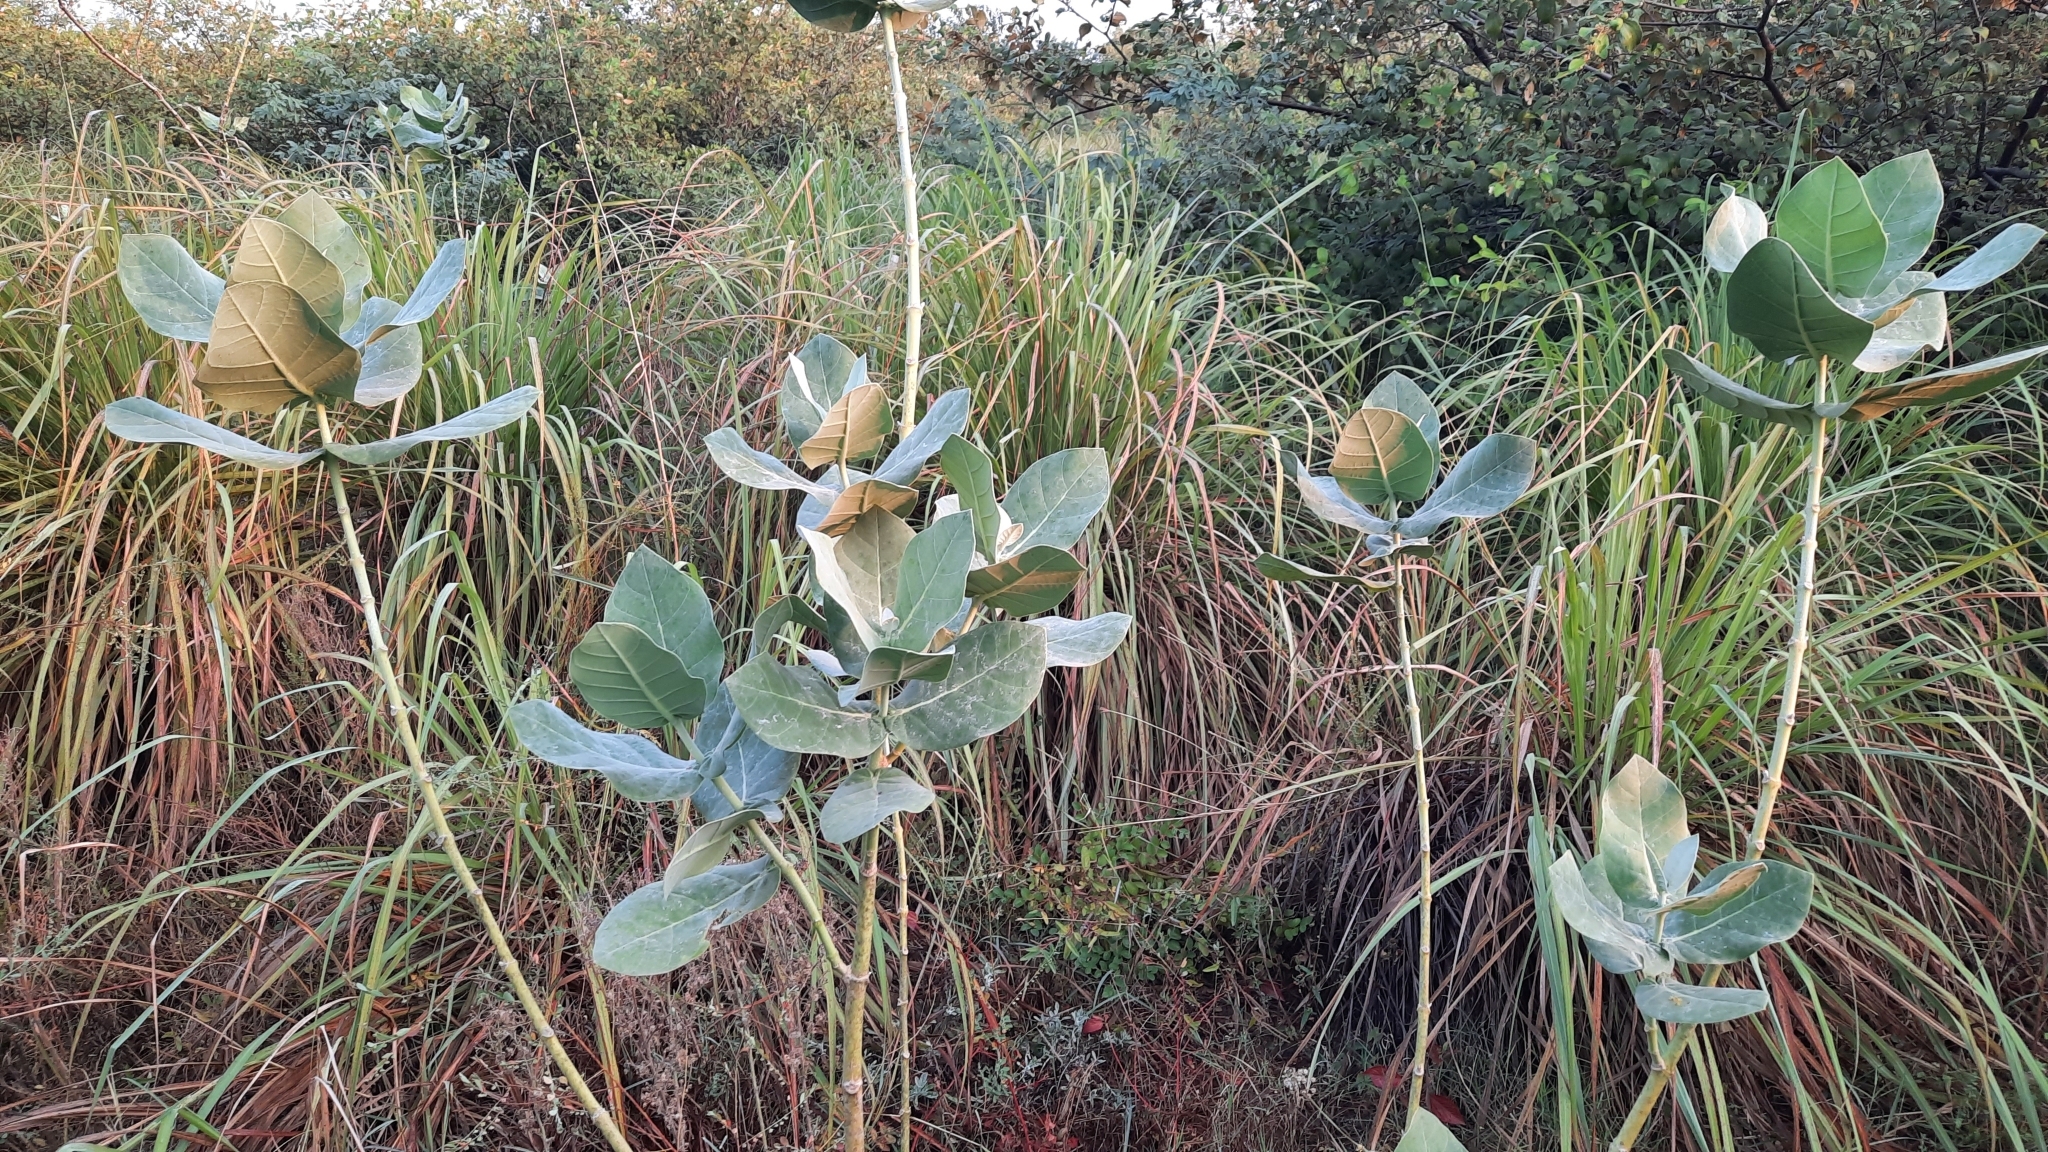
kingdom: Plantae
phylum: Tracheophyta
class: Magnoliopsida
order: Gentianales
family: Apocynaceae
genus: Calotropis
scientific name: Calotropis procera
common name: Roostertree
